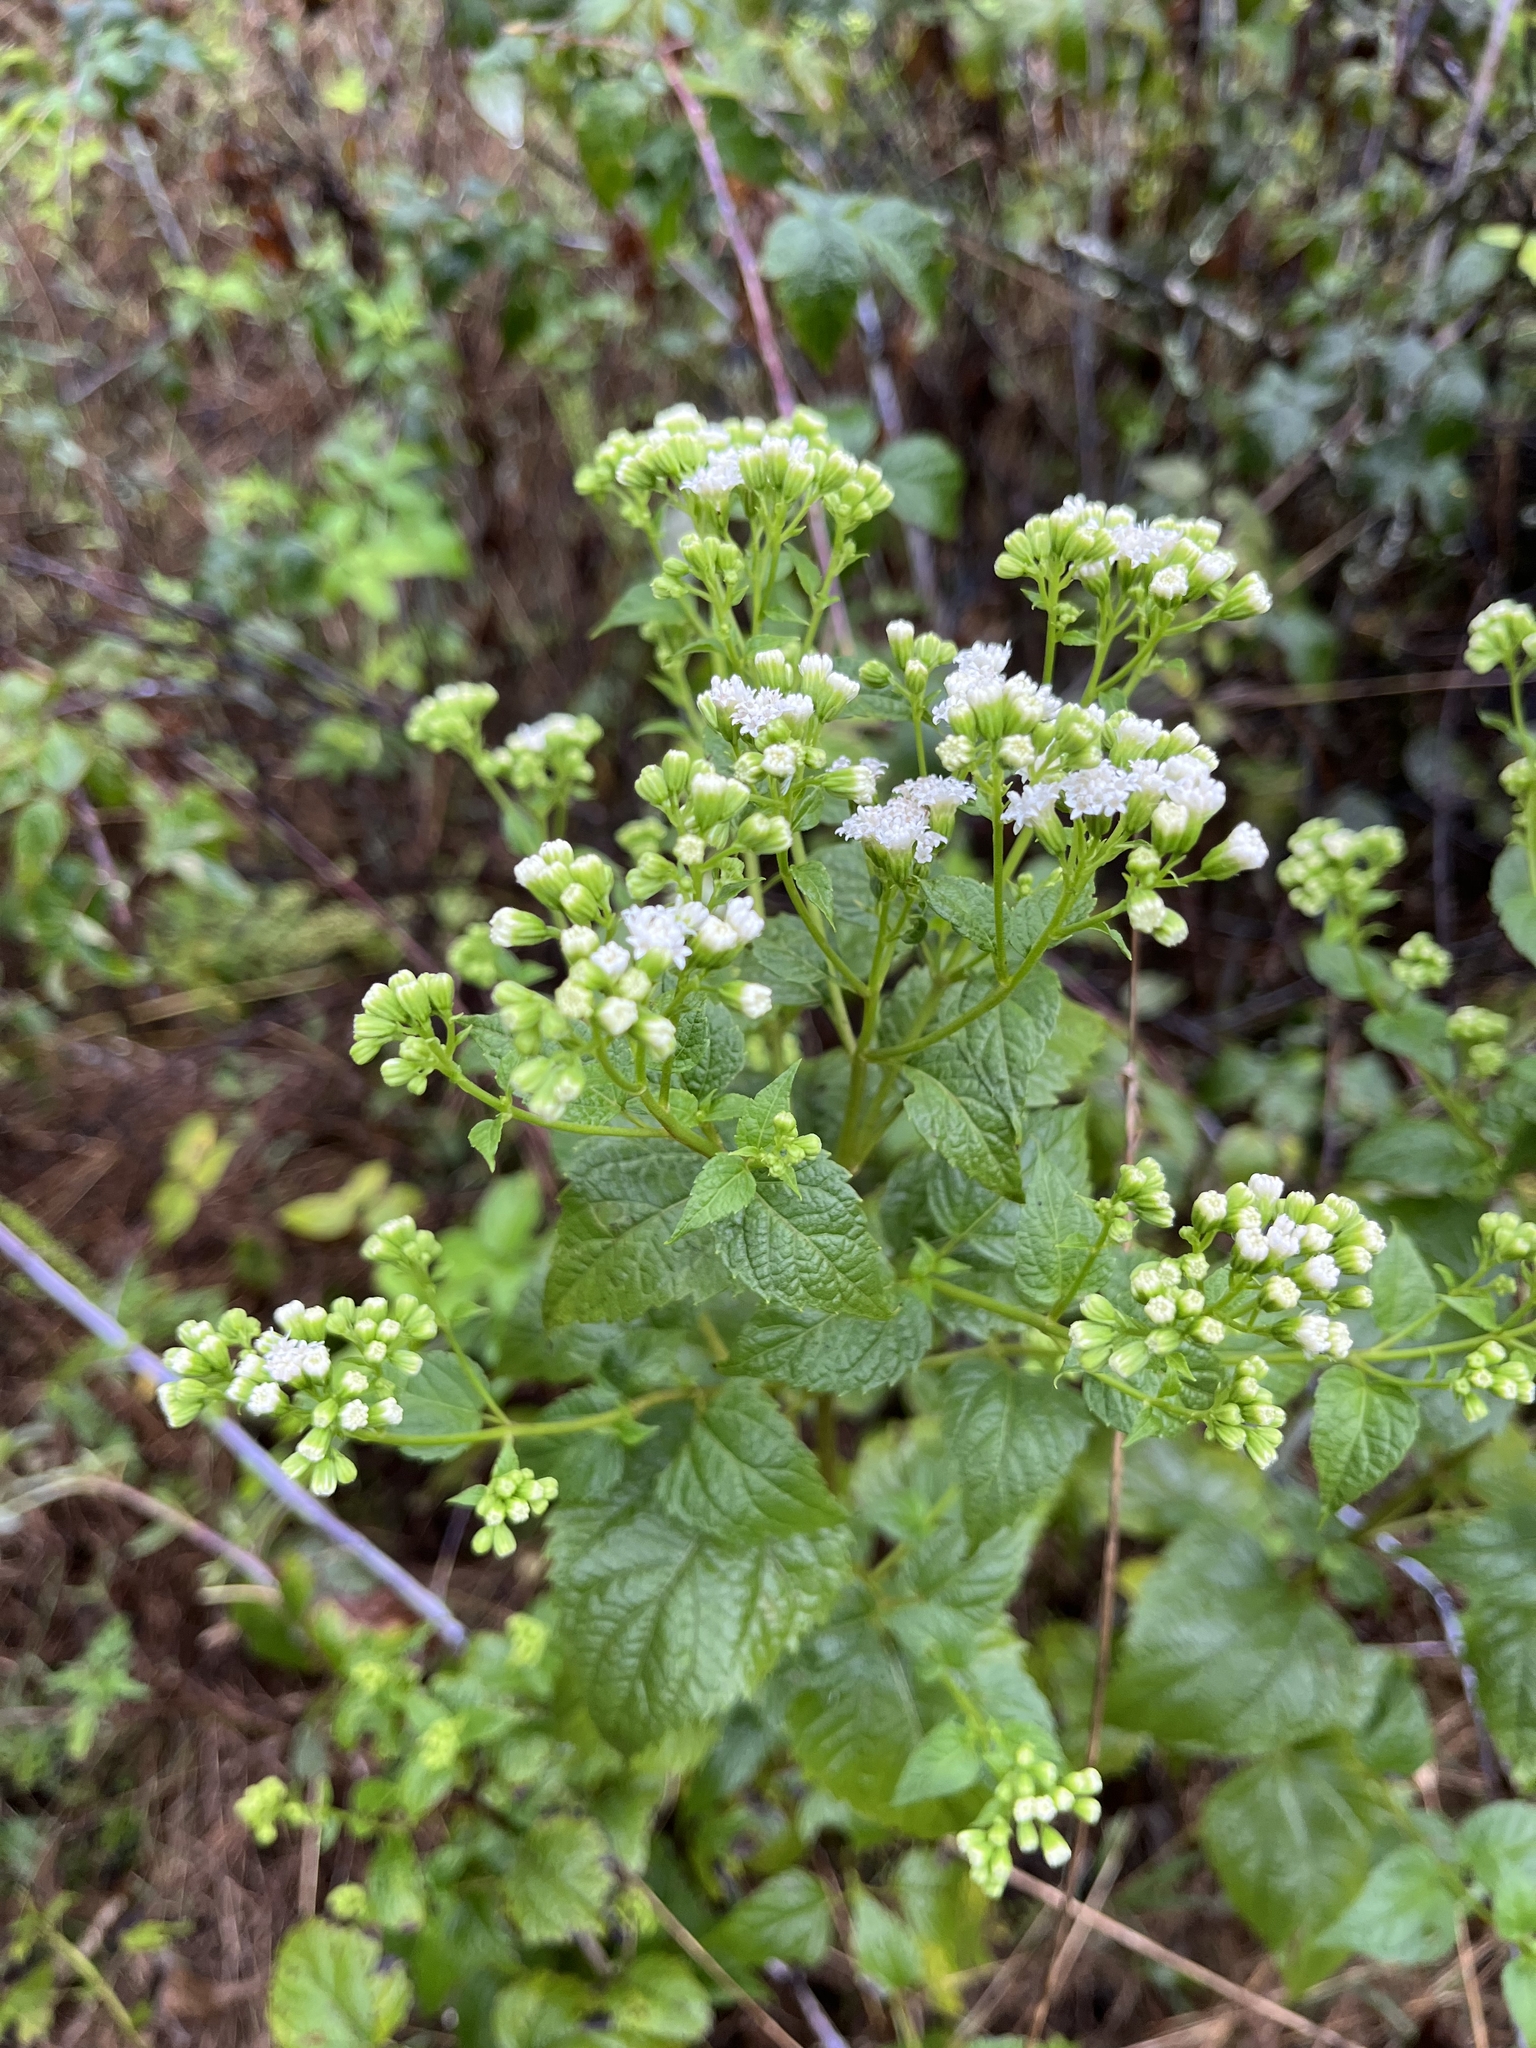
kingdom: Plantae
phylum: Tracheophyta
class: Magnoliopsida
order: Asterales
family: Asteraceae
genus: Ageratina
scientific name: Ageratina altissima
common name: White snakeroot
